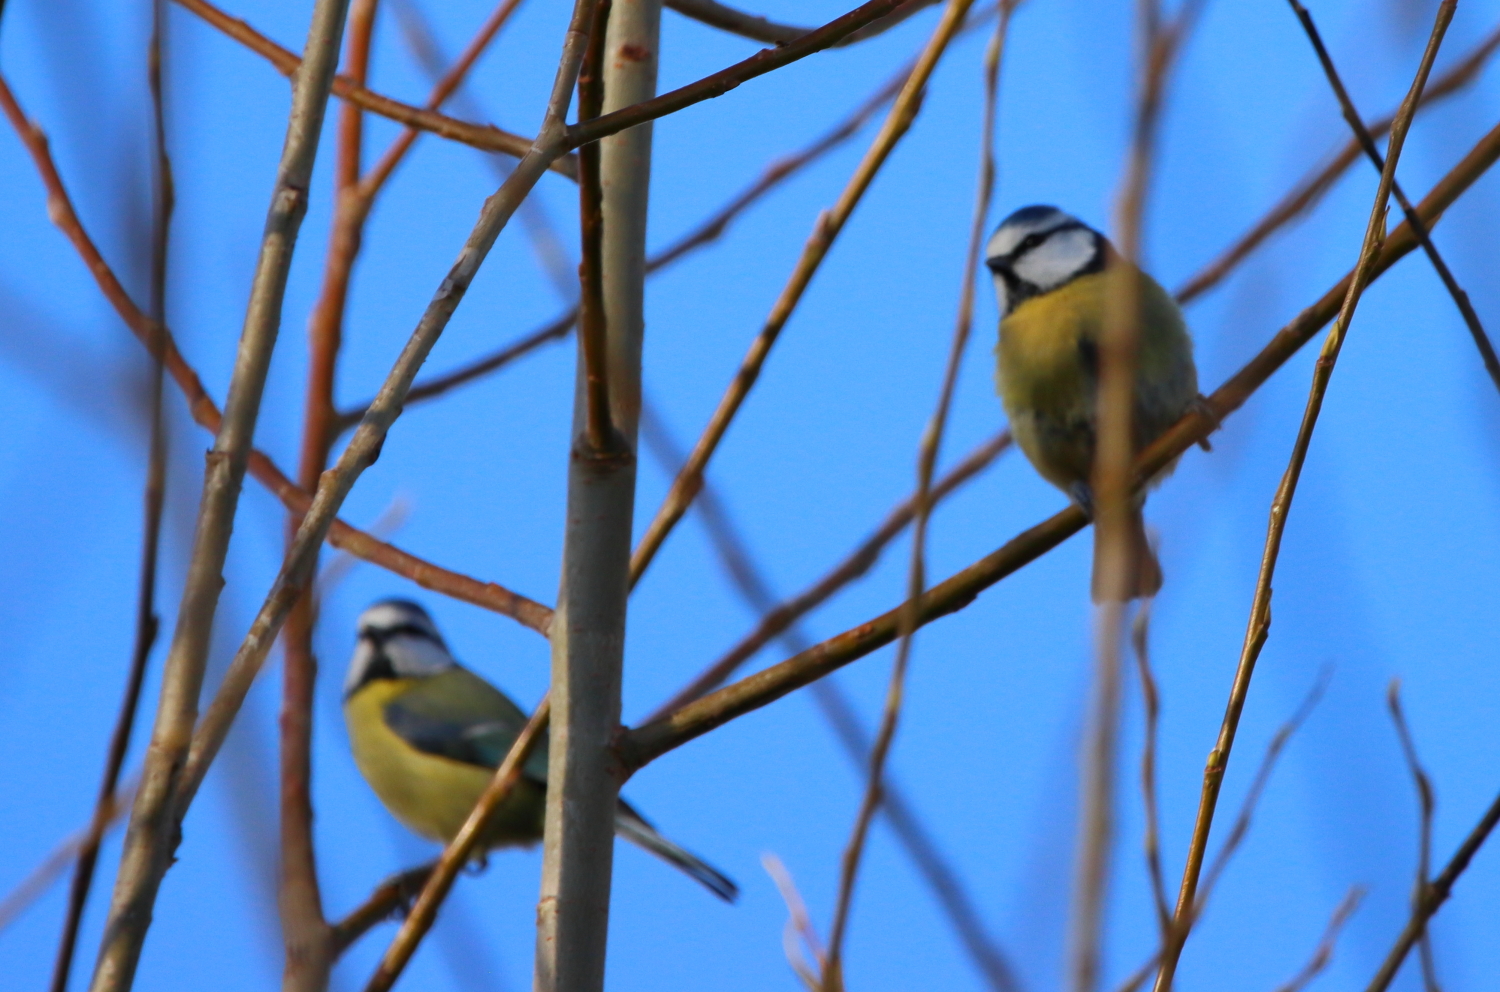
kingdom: Animalia
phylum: Chordata
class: Aves
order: Passeriformes
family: Paridae
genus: Cyanistes
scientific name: Cyanistes caeruleus
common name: Eurasian blue tit
